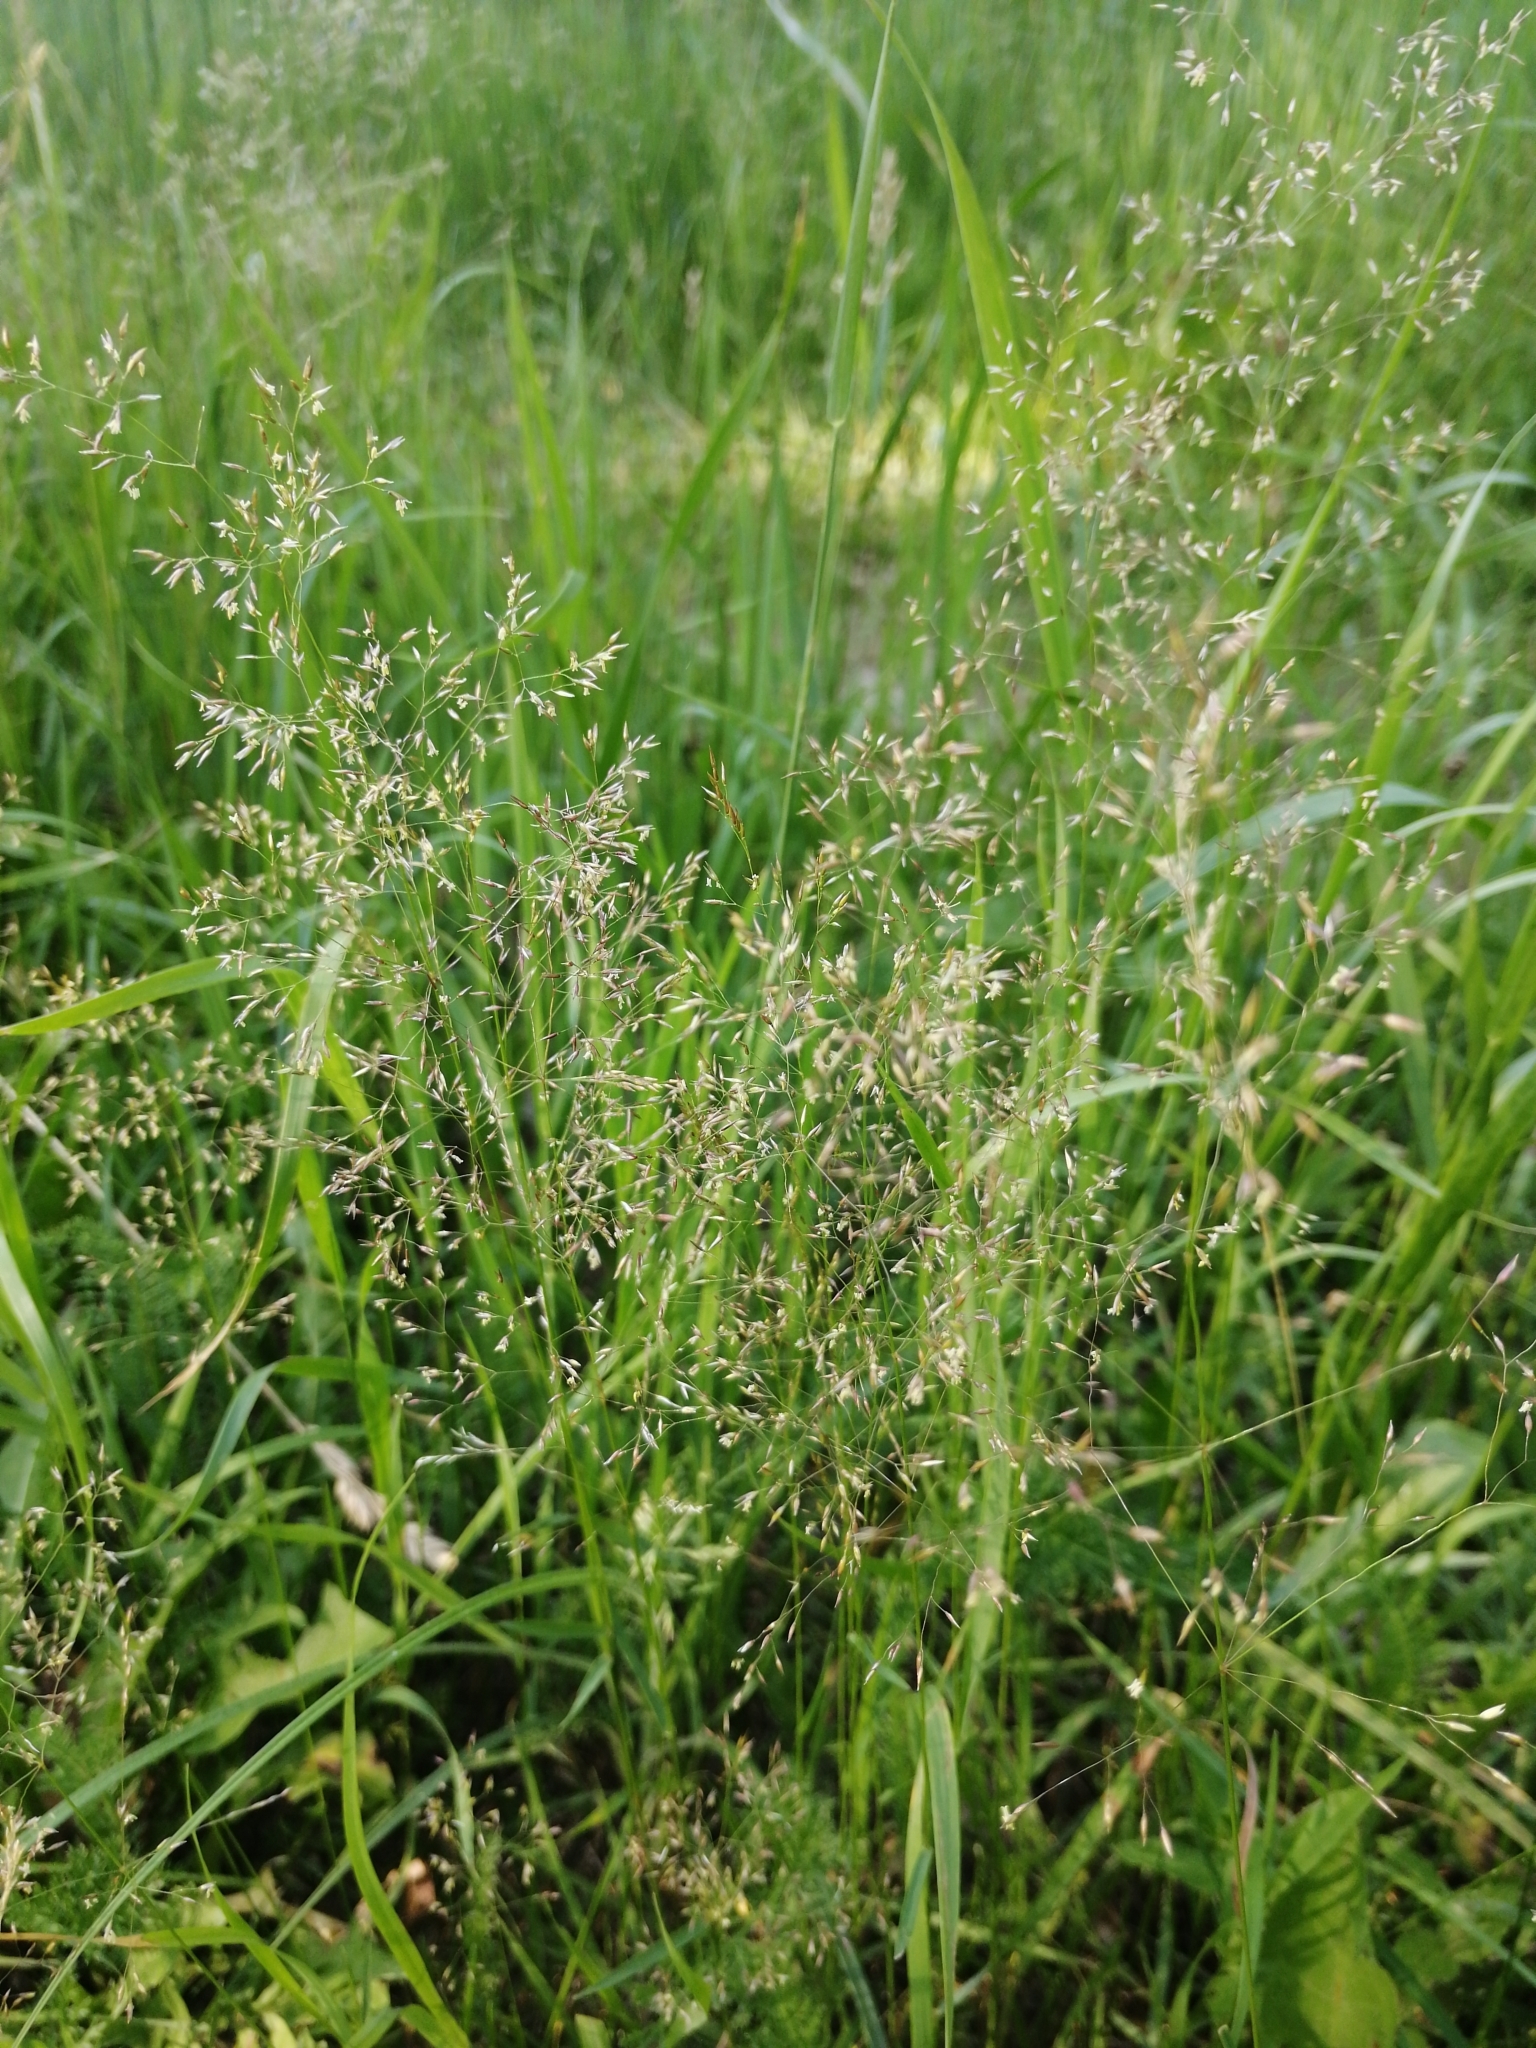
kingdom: Plantae
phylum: Tracheophyta
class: Liliopsida
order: Poales
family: Poaceae
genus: Agrostis
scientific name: Agrostis capillaris
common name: Colonial bentgrass
